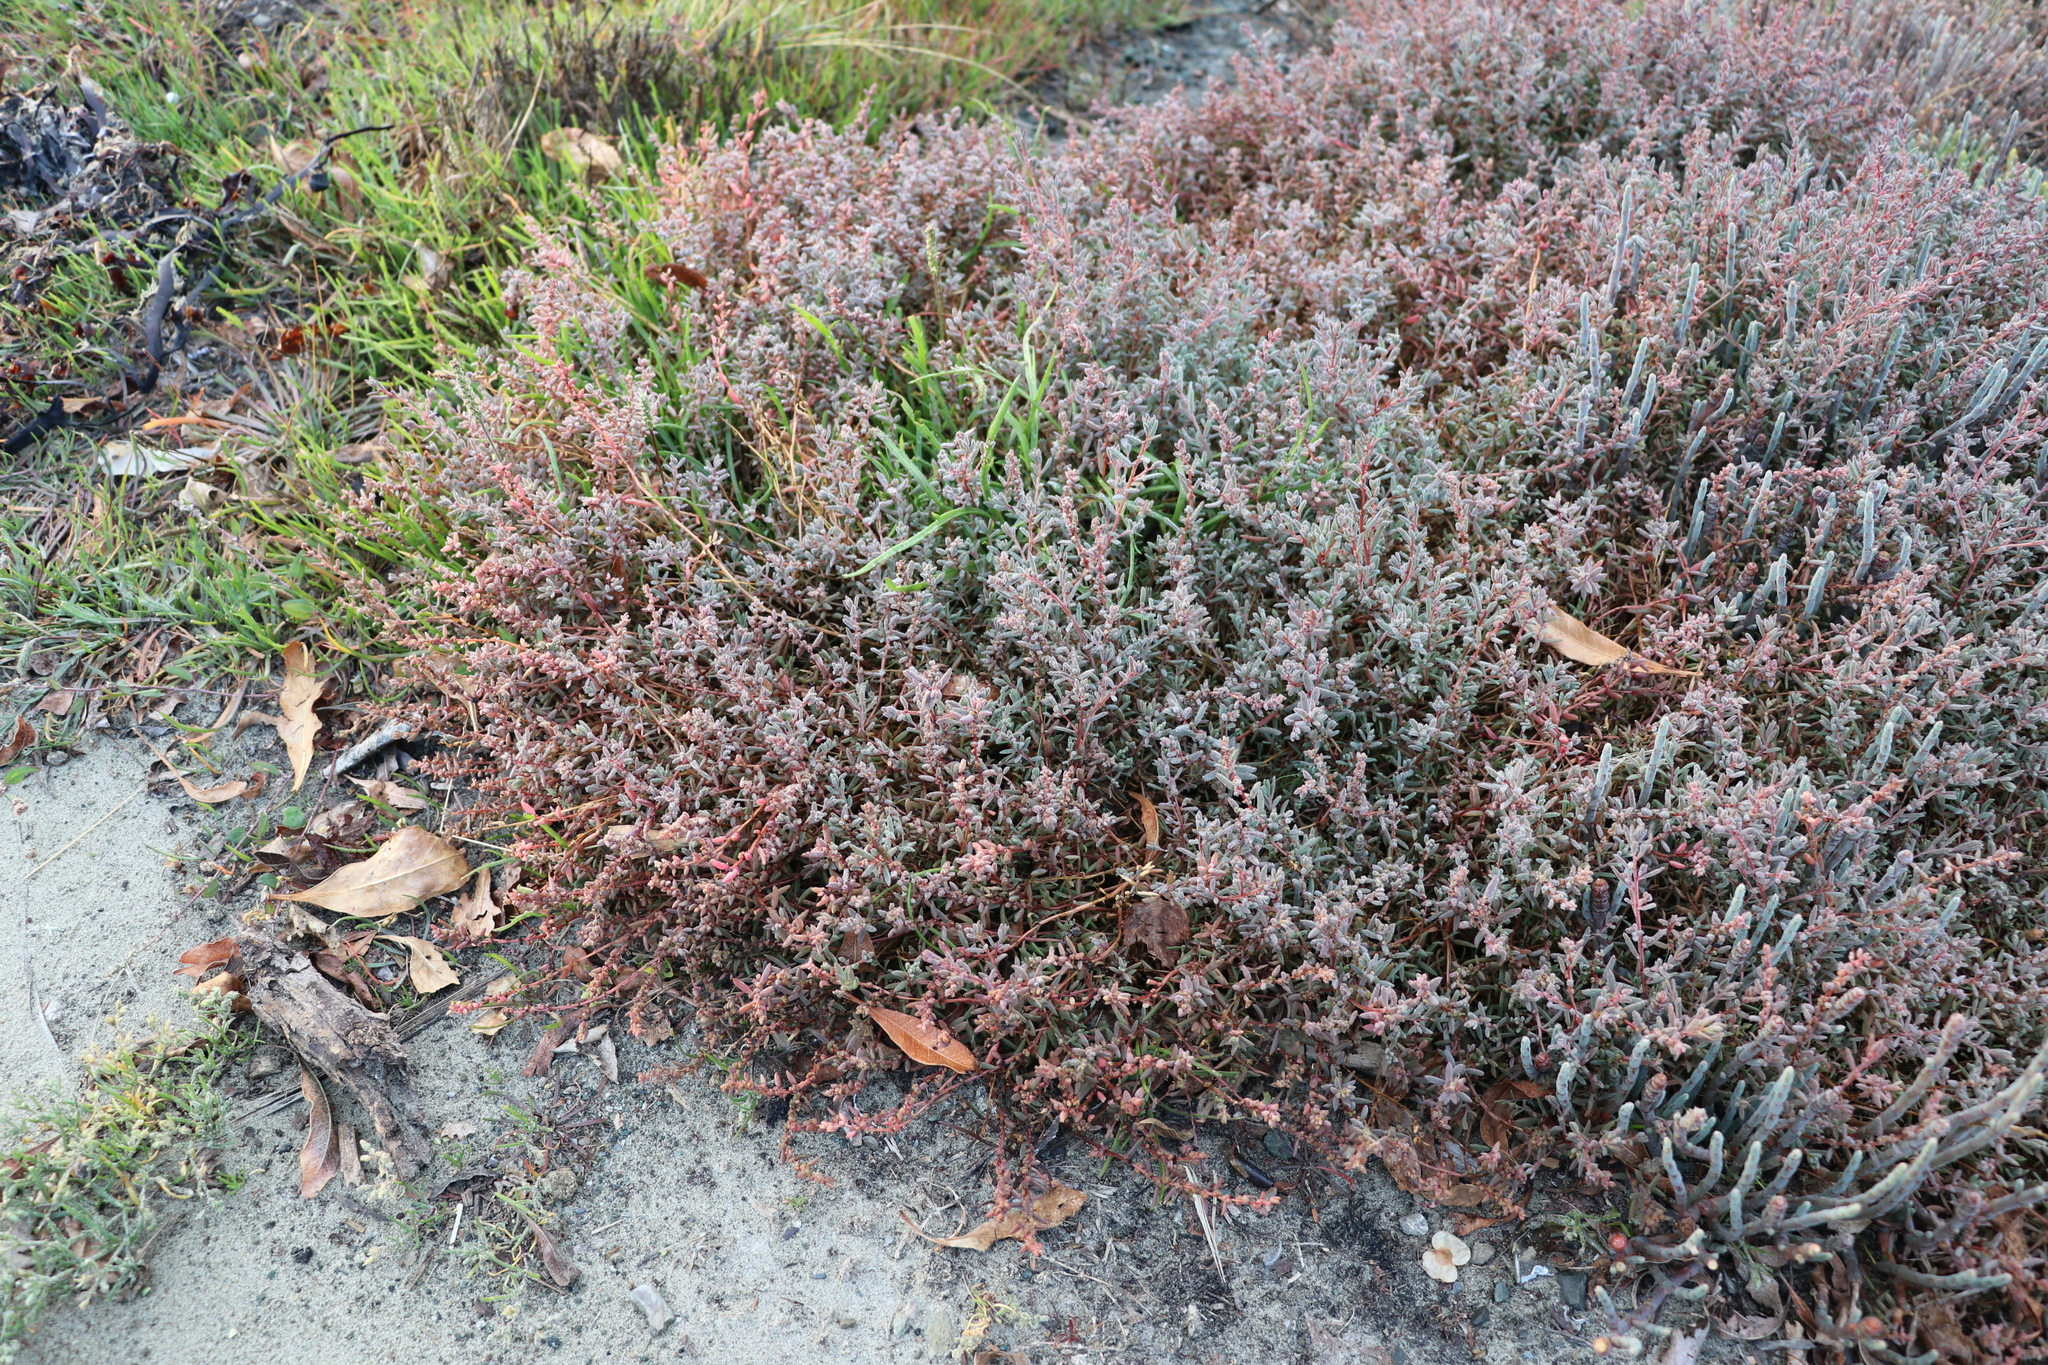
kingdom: Plantae
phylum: Tracheophyta
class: Magnoliopsida
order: Caryophyllales
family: Amaranthaceae
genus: Suaeda
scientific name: Suaeda novae-zelandiae
